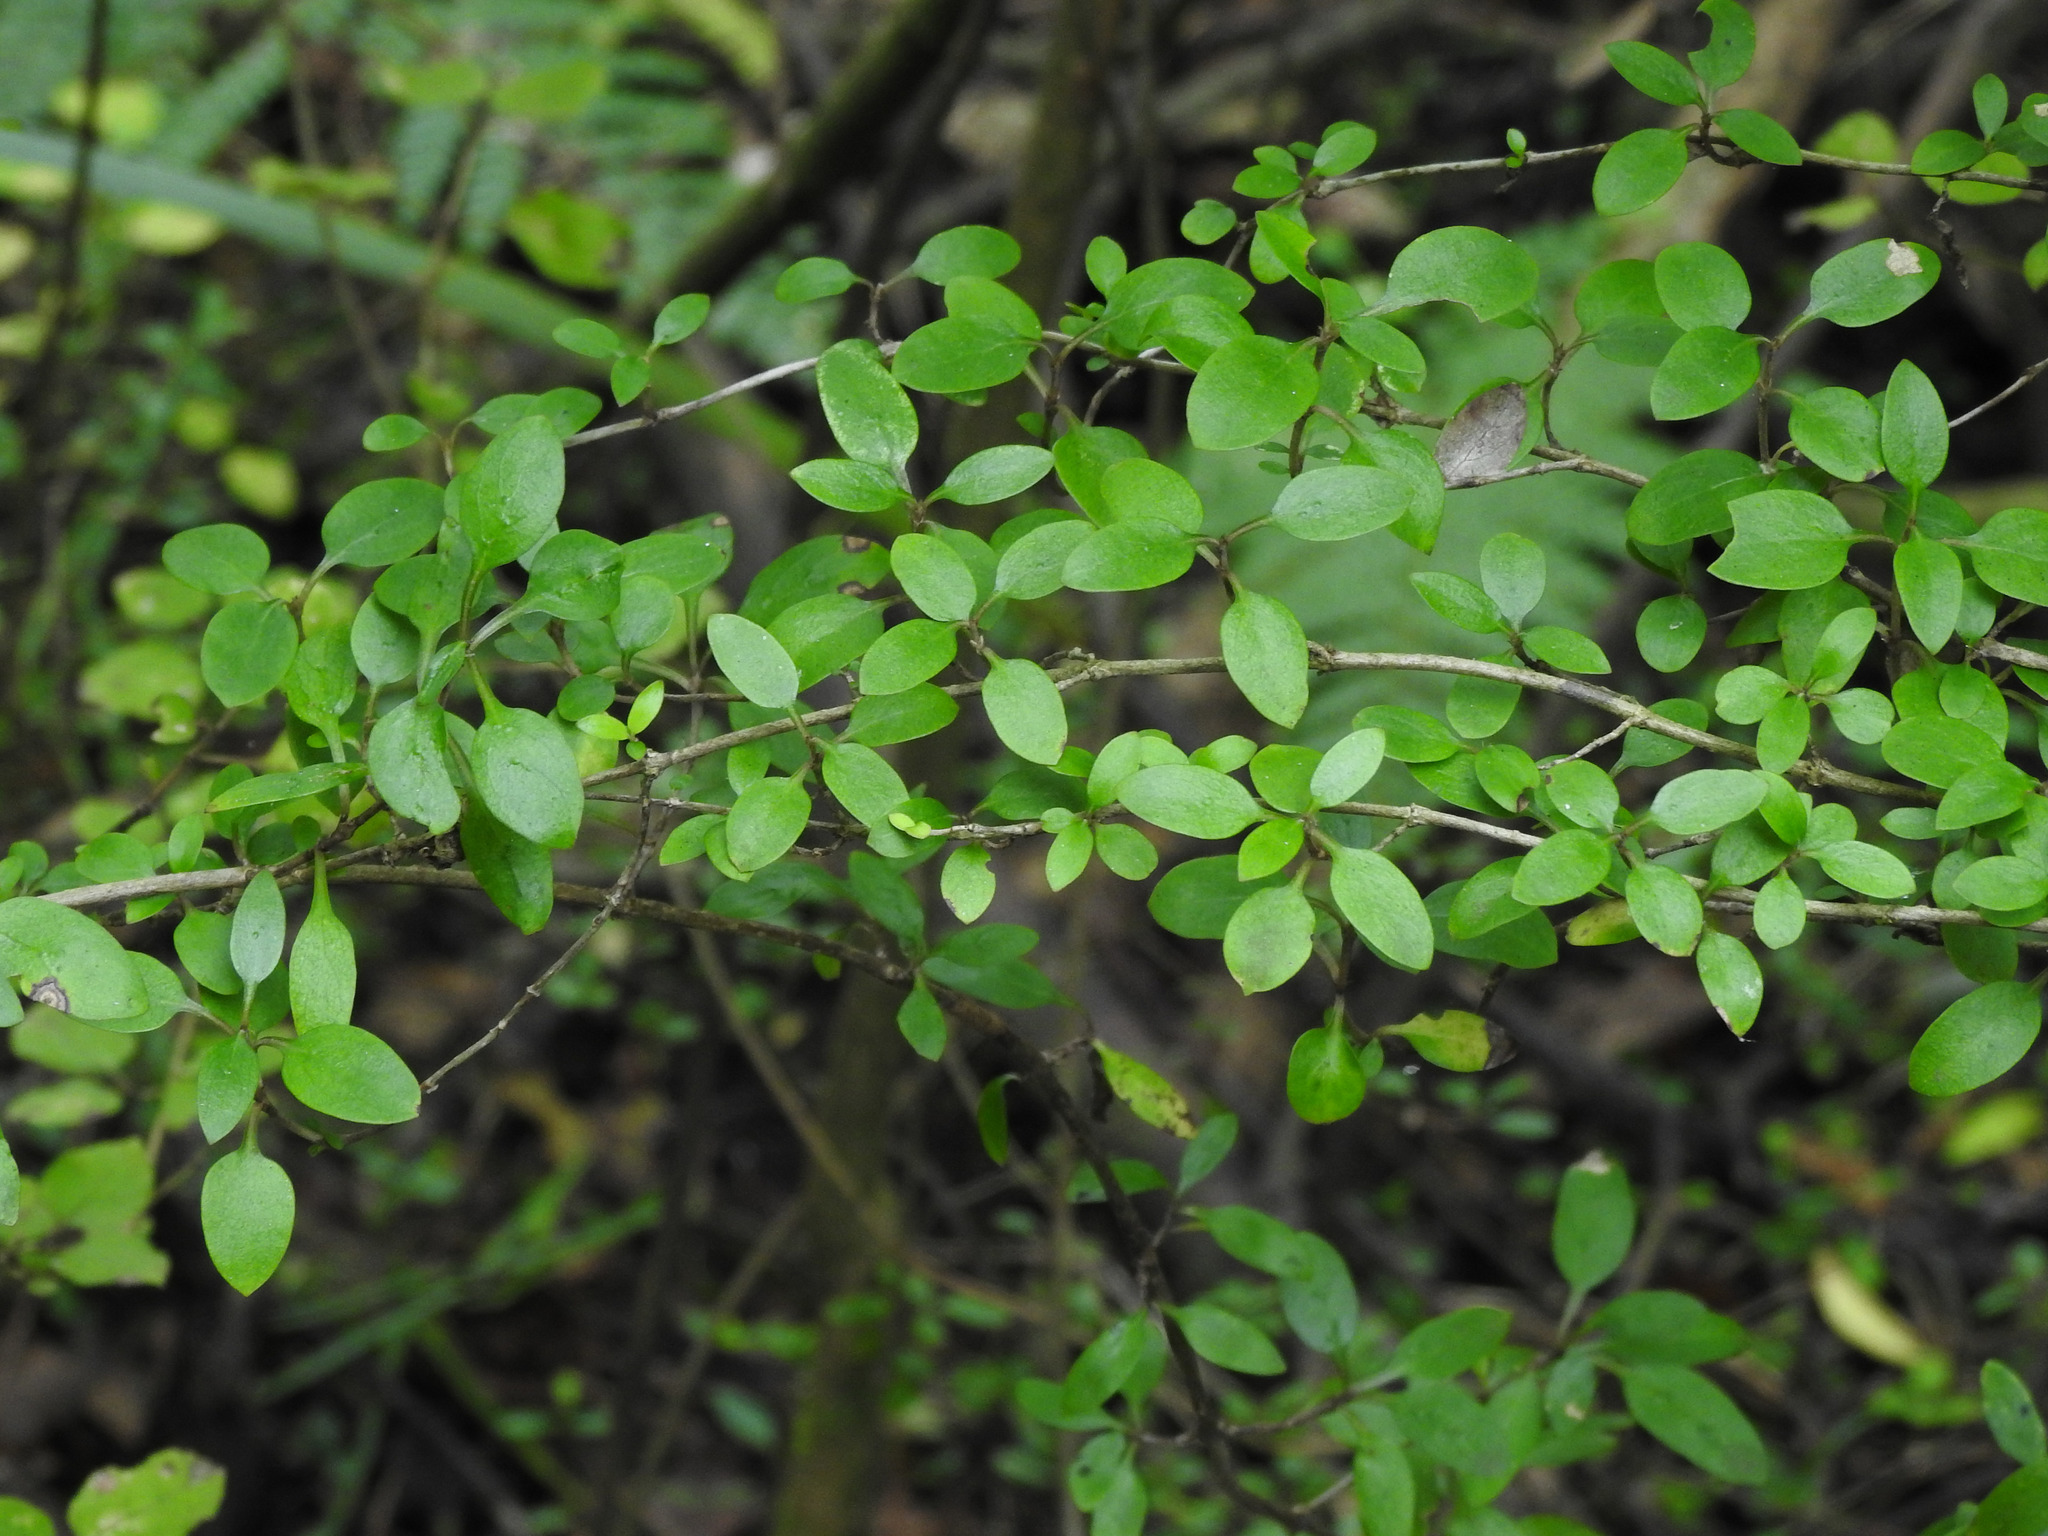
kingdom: Plantae
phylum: Tracheophyta
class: Magnoliopsida
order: Gentianales
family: Rubiaceae
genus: Coprosma
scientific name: Coprosma propinqua
